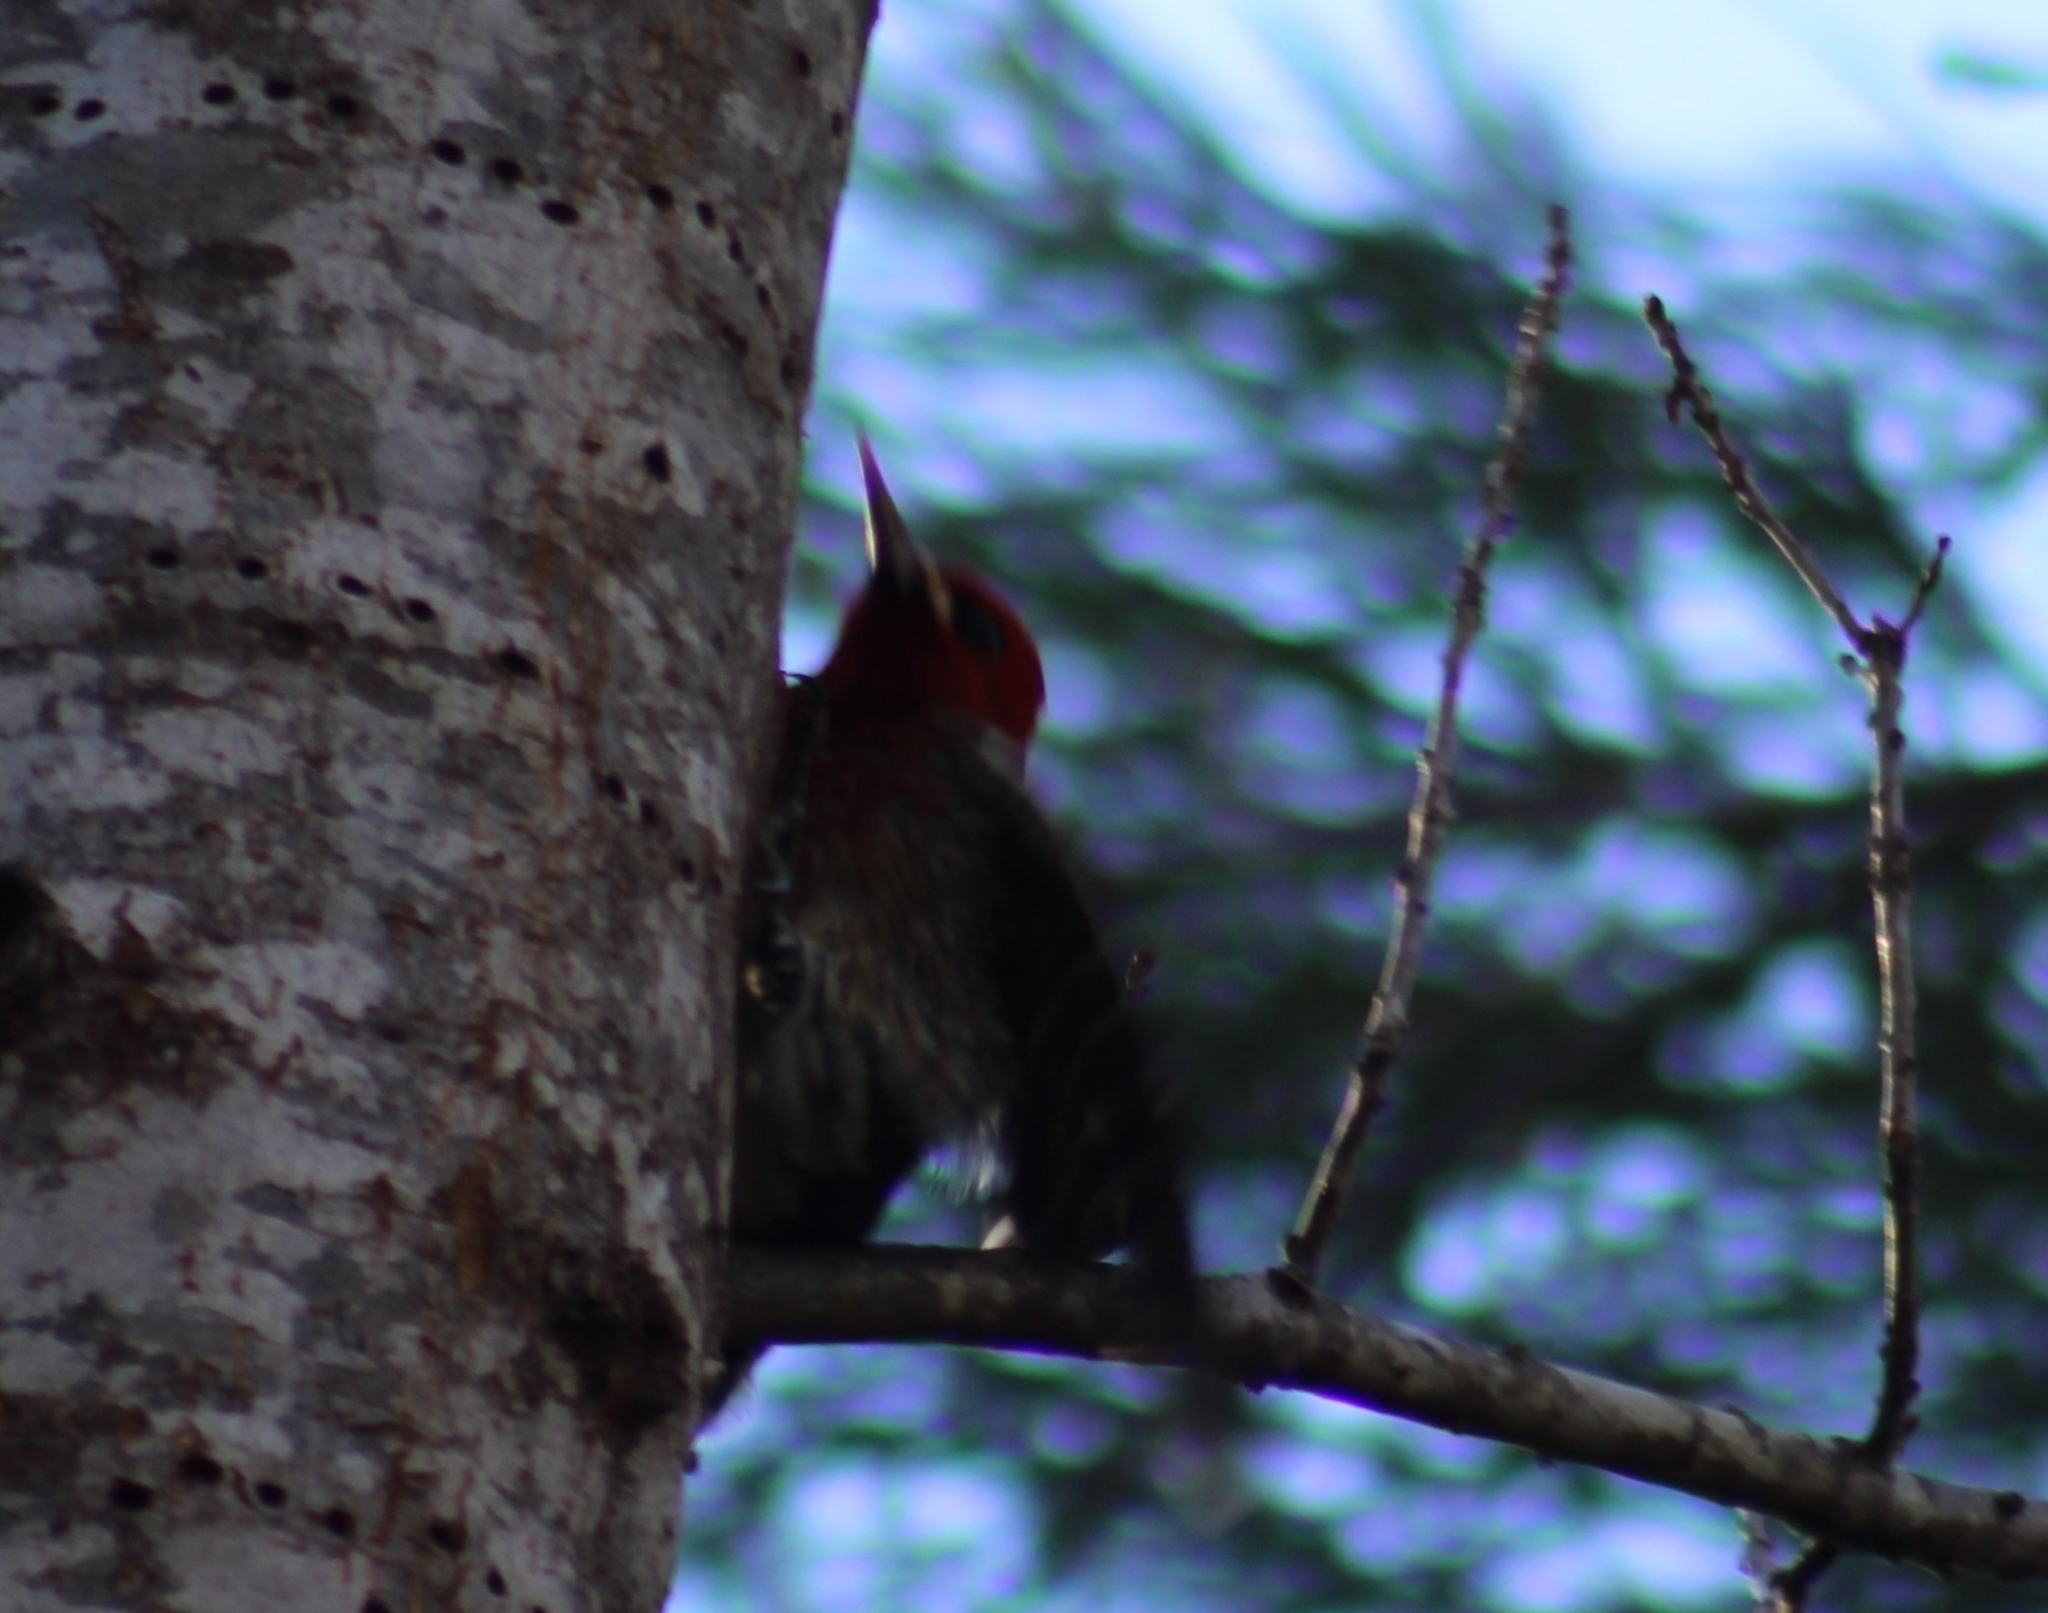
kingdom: Animalia
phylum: Chordata
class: Aves
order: Piciformes
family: Picidae
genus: Sphyrapicus
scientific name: Sphyrapicus ruber
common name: Red-breasted sapsucker
